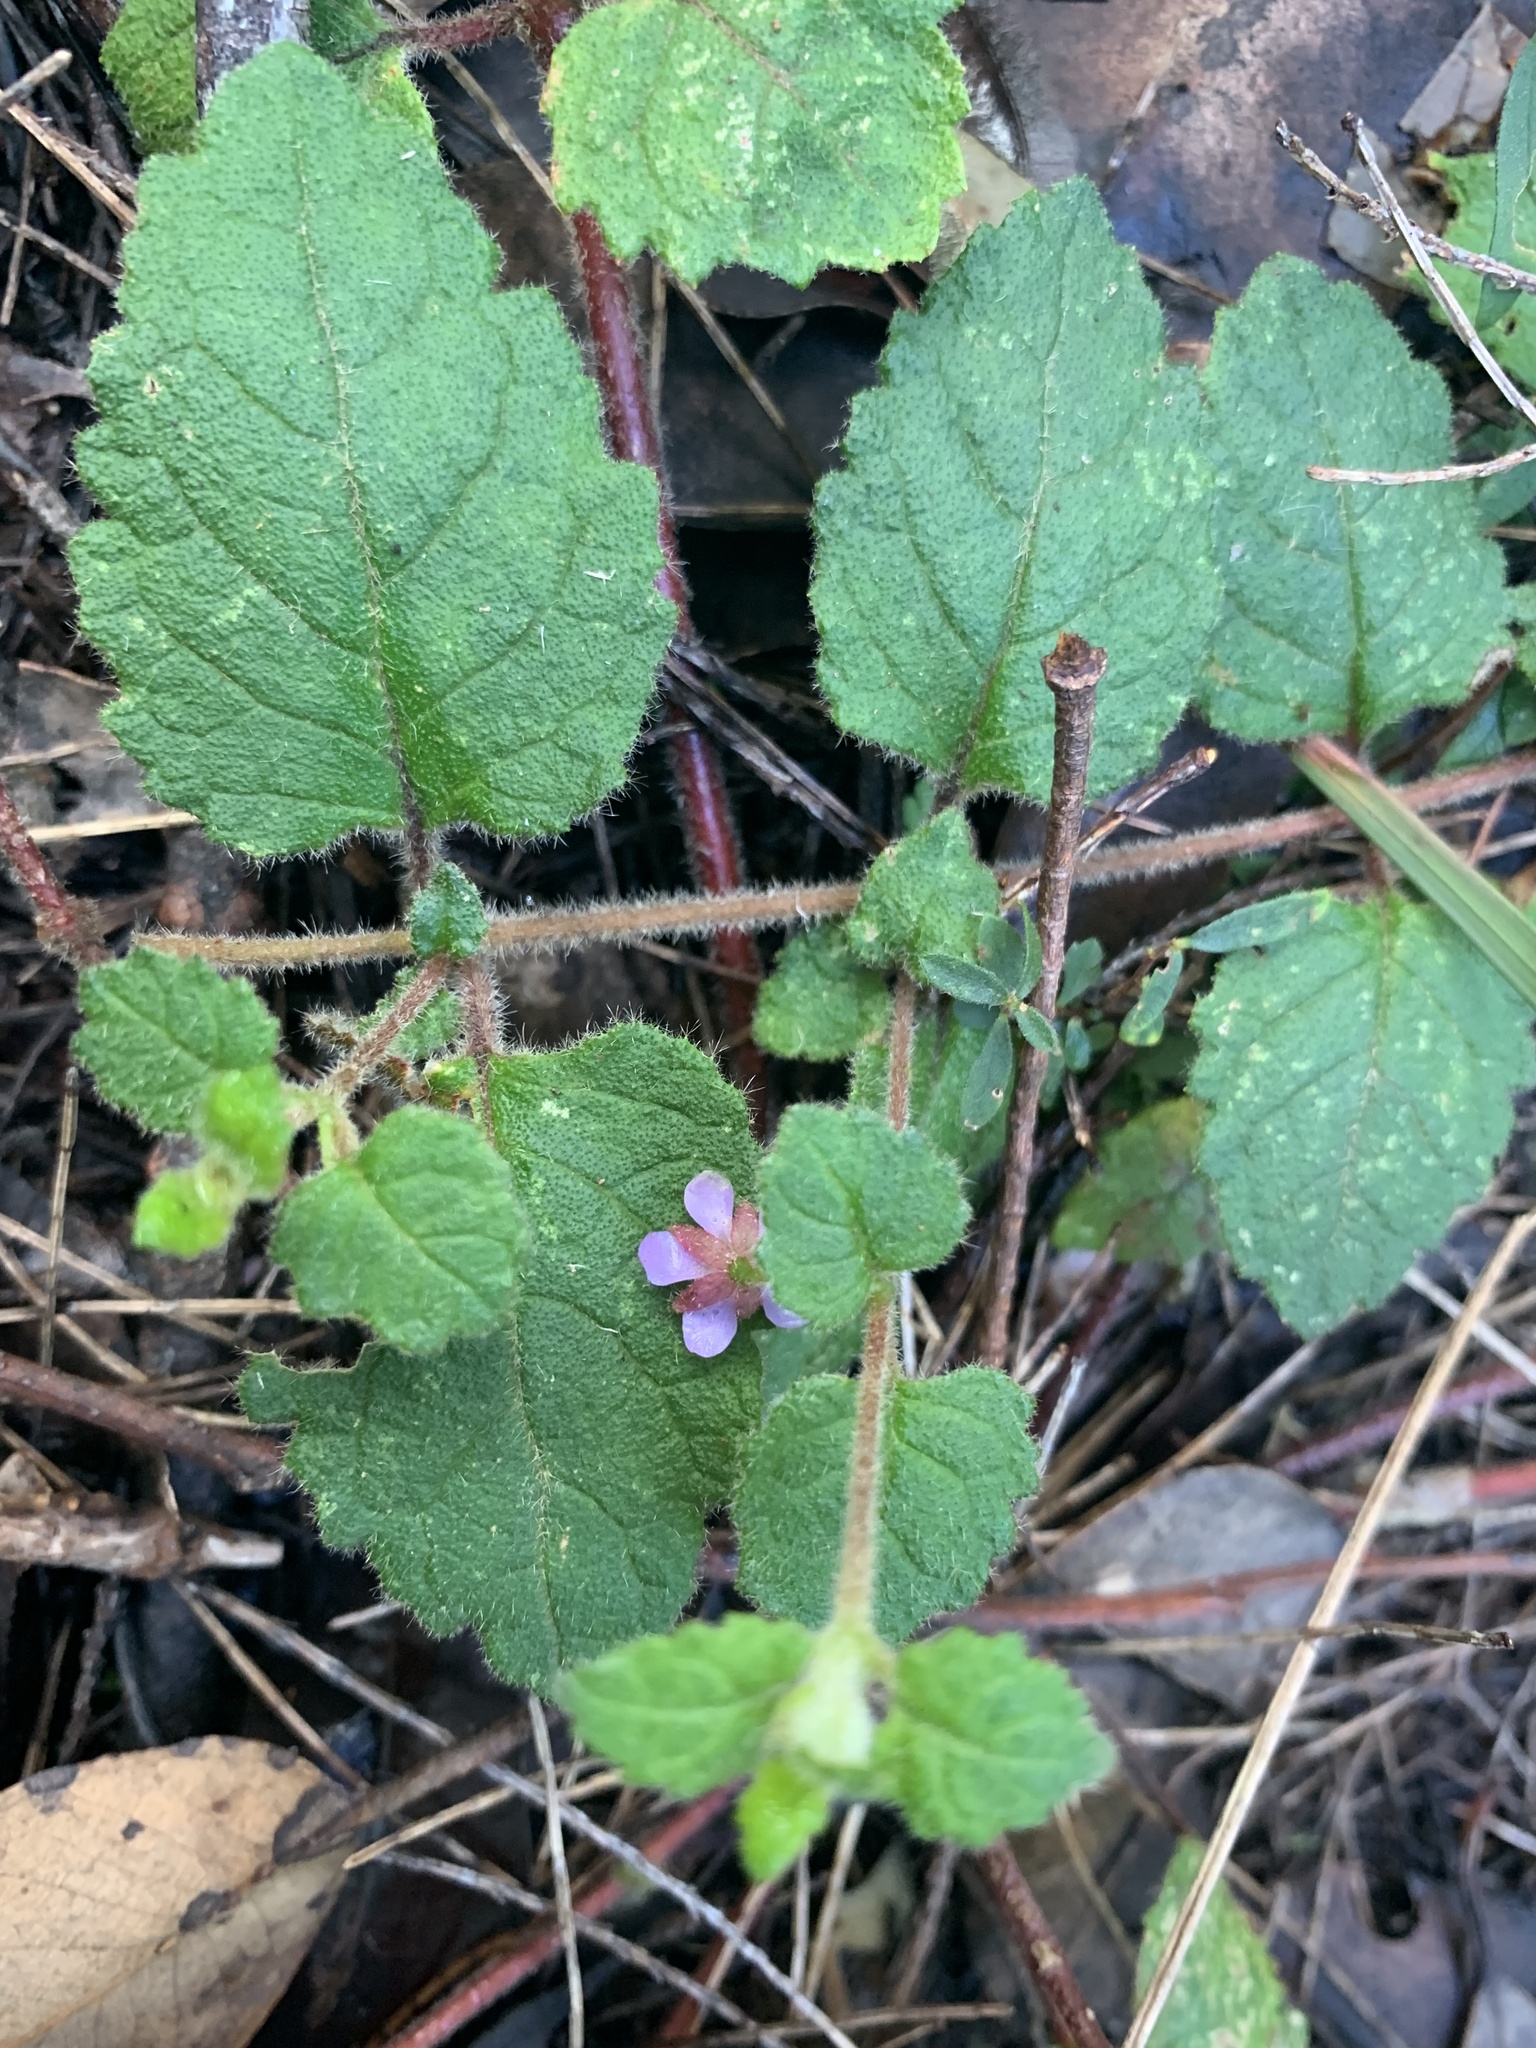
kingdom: Plantae
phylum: Tracheophyta
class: Magnoliopsida
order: Oxalidales
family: Elaeocarpaceae
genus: Tremandra
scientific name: Tremandra stelligera
